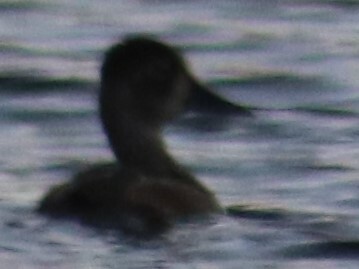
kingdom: Animalia
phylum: Chordata
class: Aves
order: Anseriformes
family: Anatidae
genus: Aythya
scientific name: Aythya collaris
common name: Ring-necked duck
